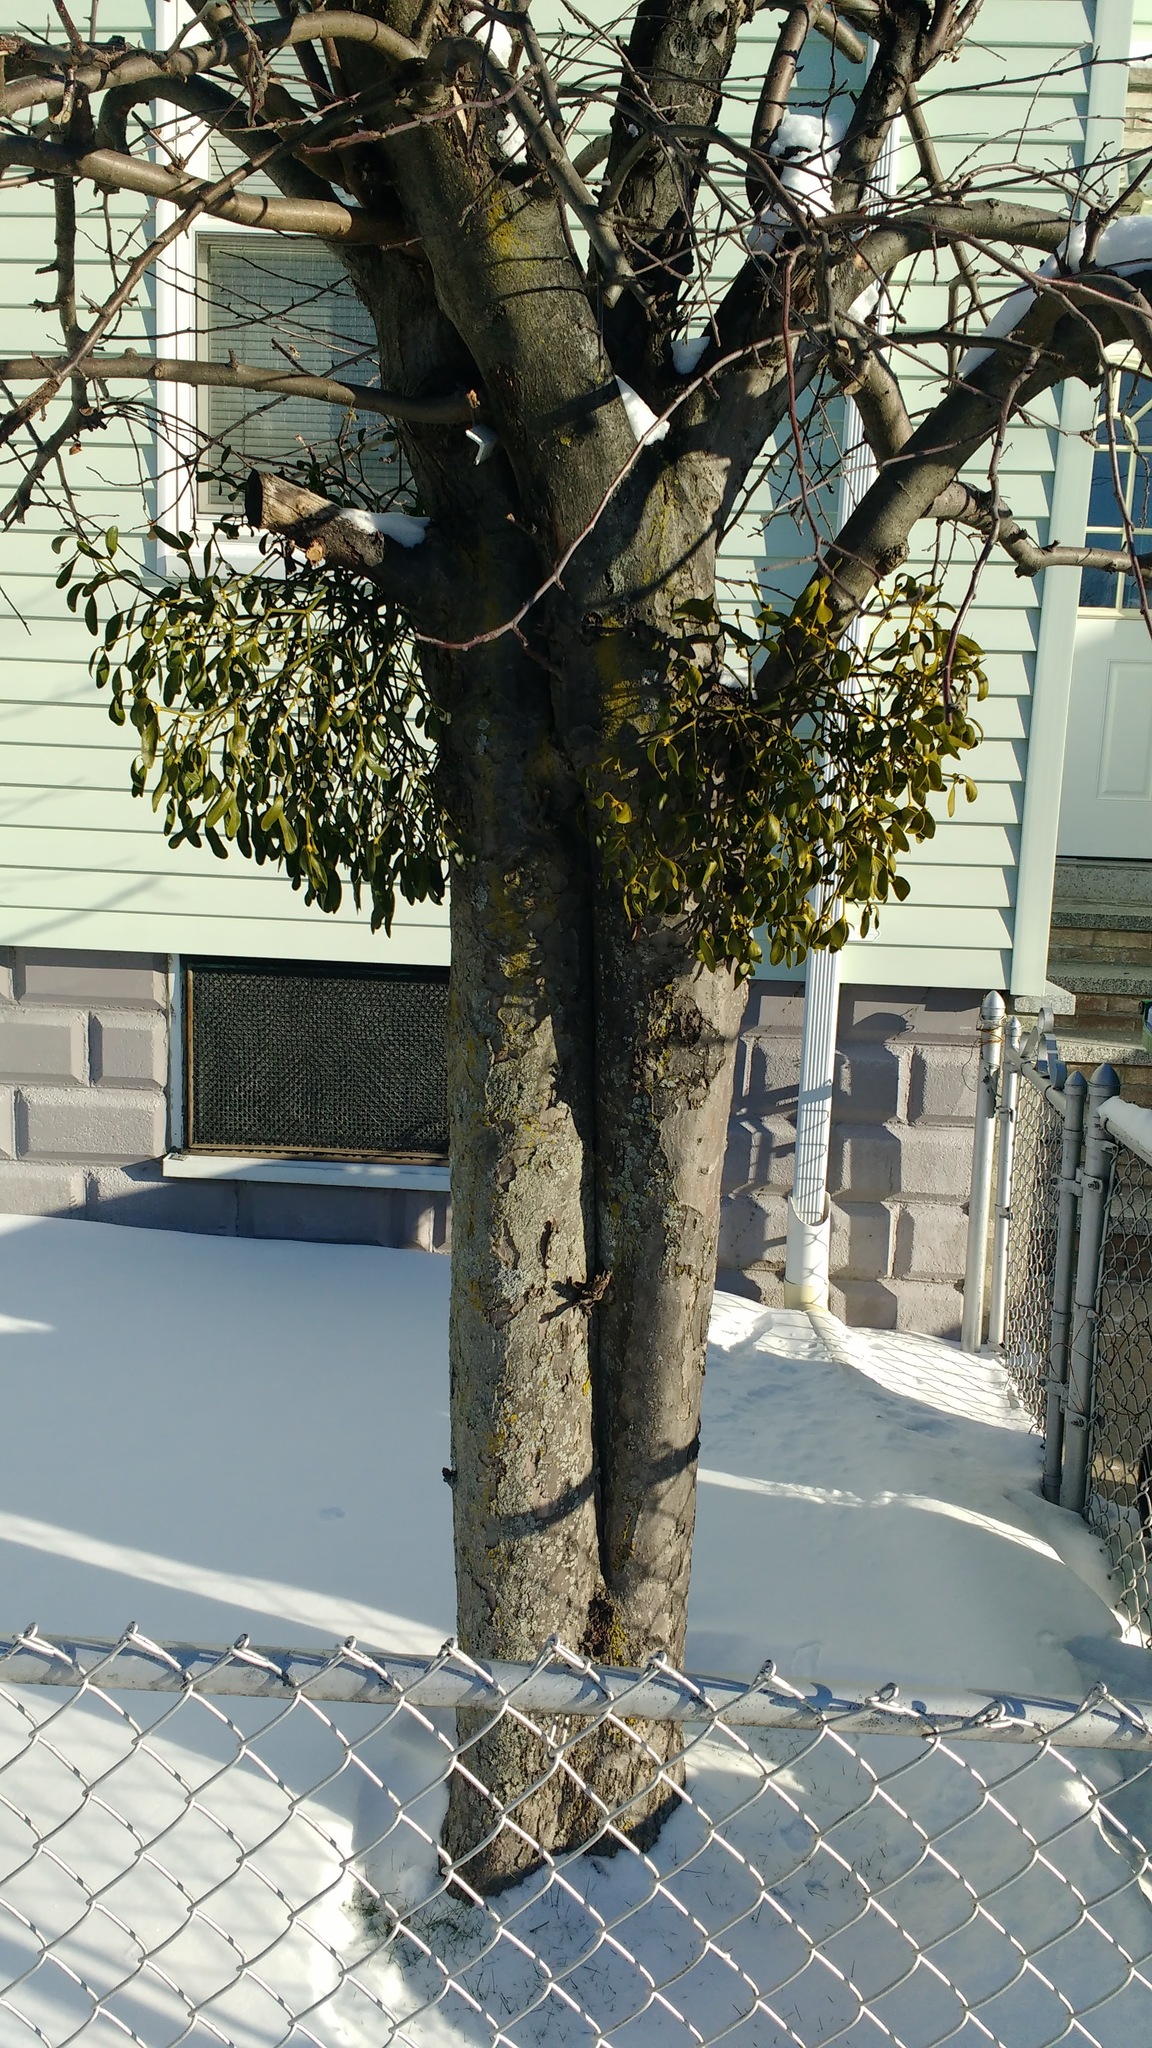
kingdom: Plantae
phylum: Tracheophyta
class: Magnoliopsida
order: Santalales
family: Viscaceae
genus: Viscum
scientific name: Viscum album
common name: Mistletoe
